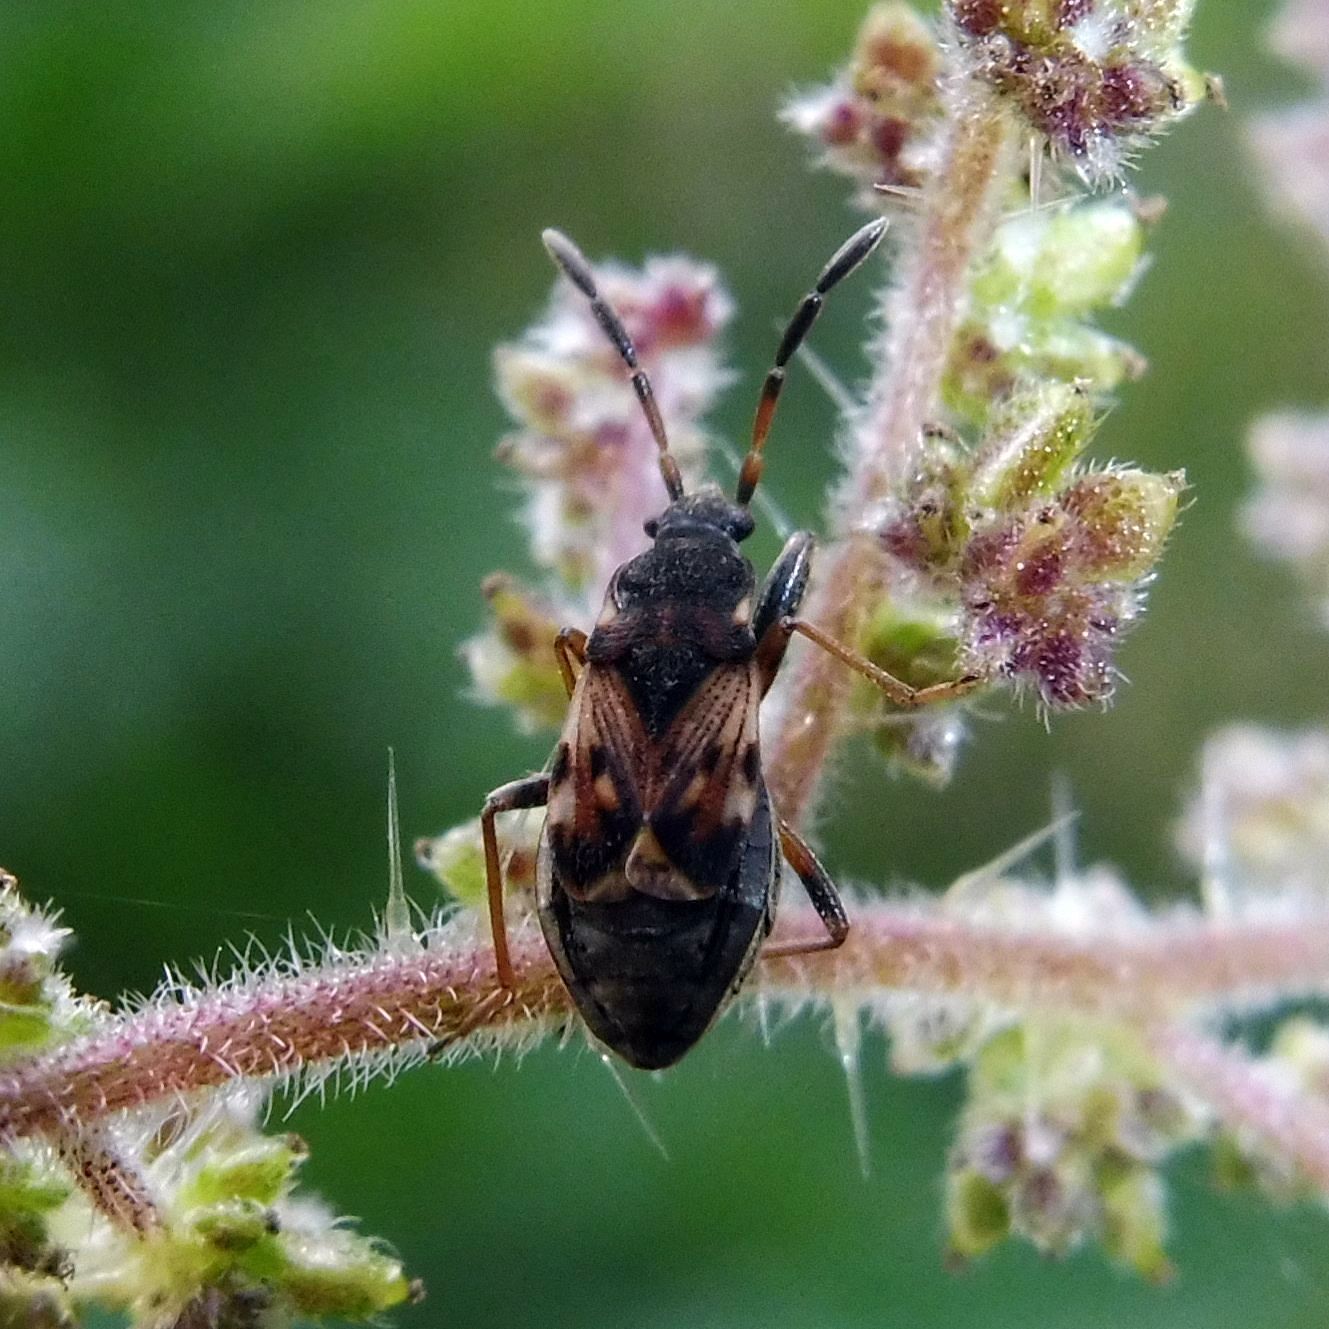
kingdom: Animalia
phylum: Arthropoda
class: Insecta
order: Hemiptera
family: Rhyparochromidae
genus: Scolopostethus
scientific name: Scolopostethus thomsoni
